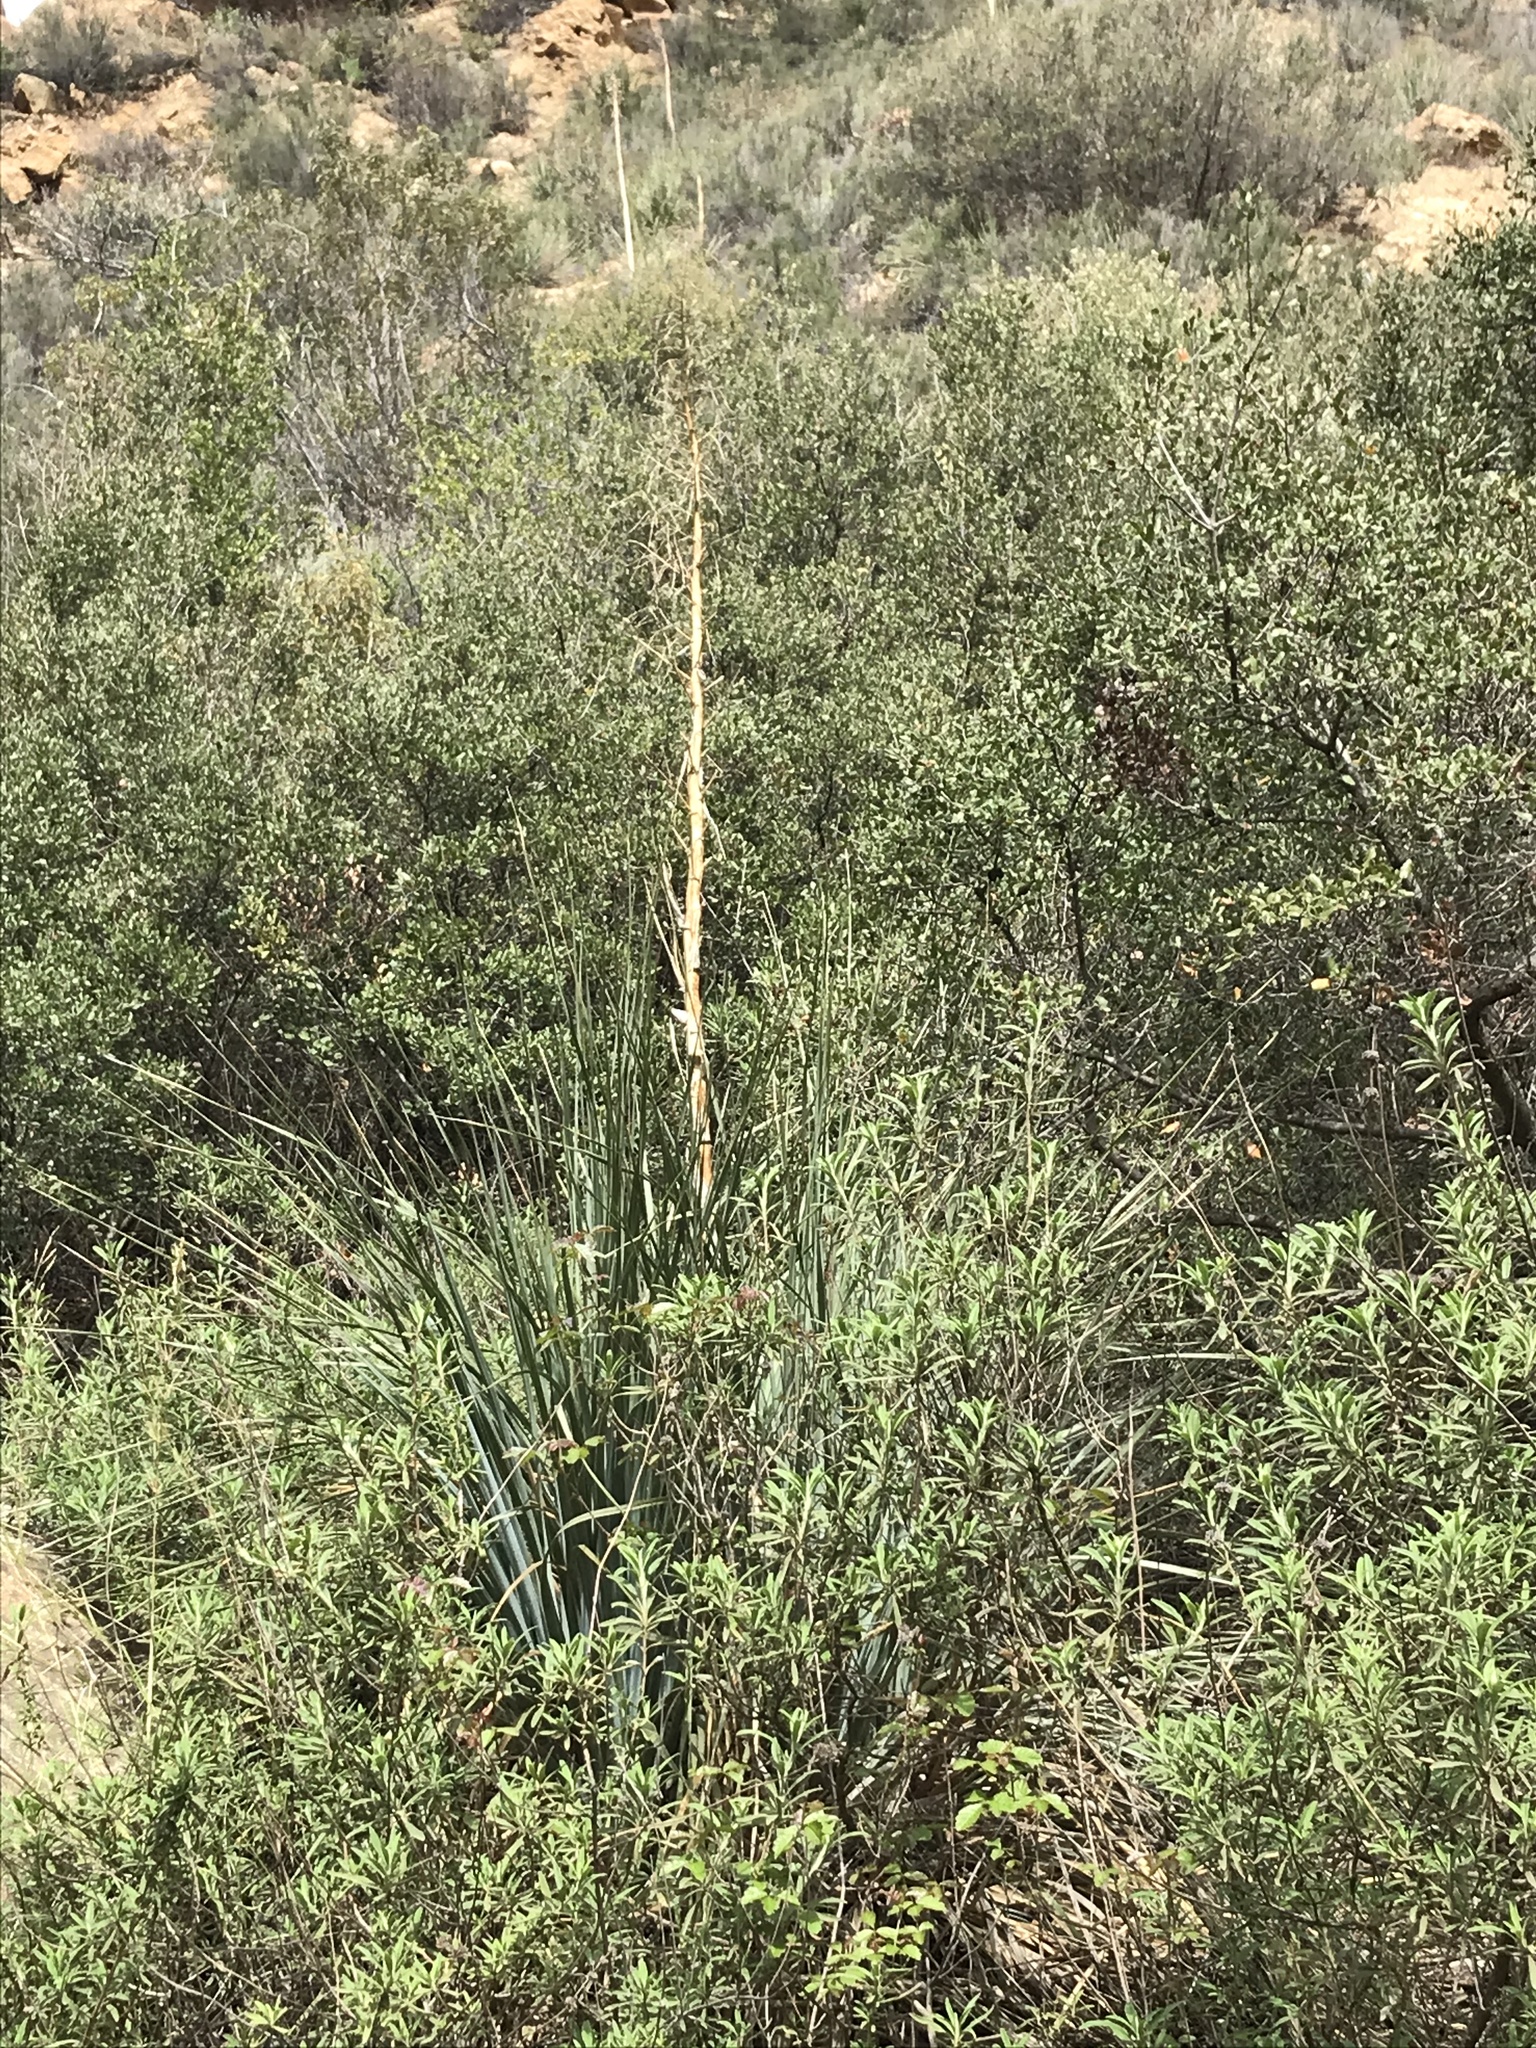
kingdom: Plantae
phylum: Tracheophyta
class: Liliopsida
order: Asparagales
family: Asparagaceae
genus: Nolina
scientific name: Nolina cismontana
